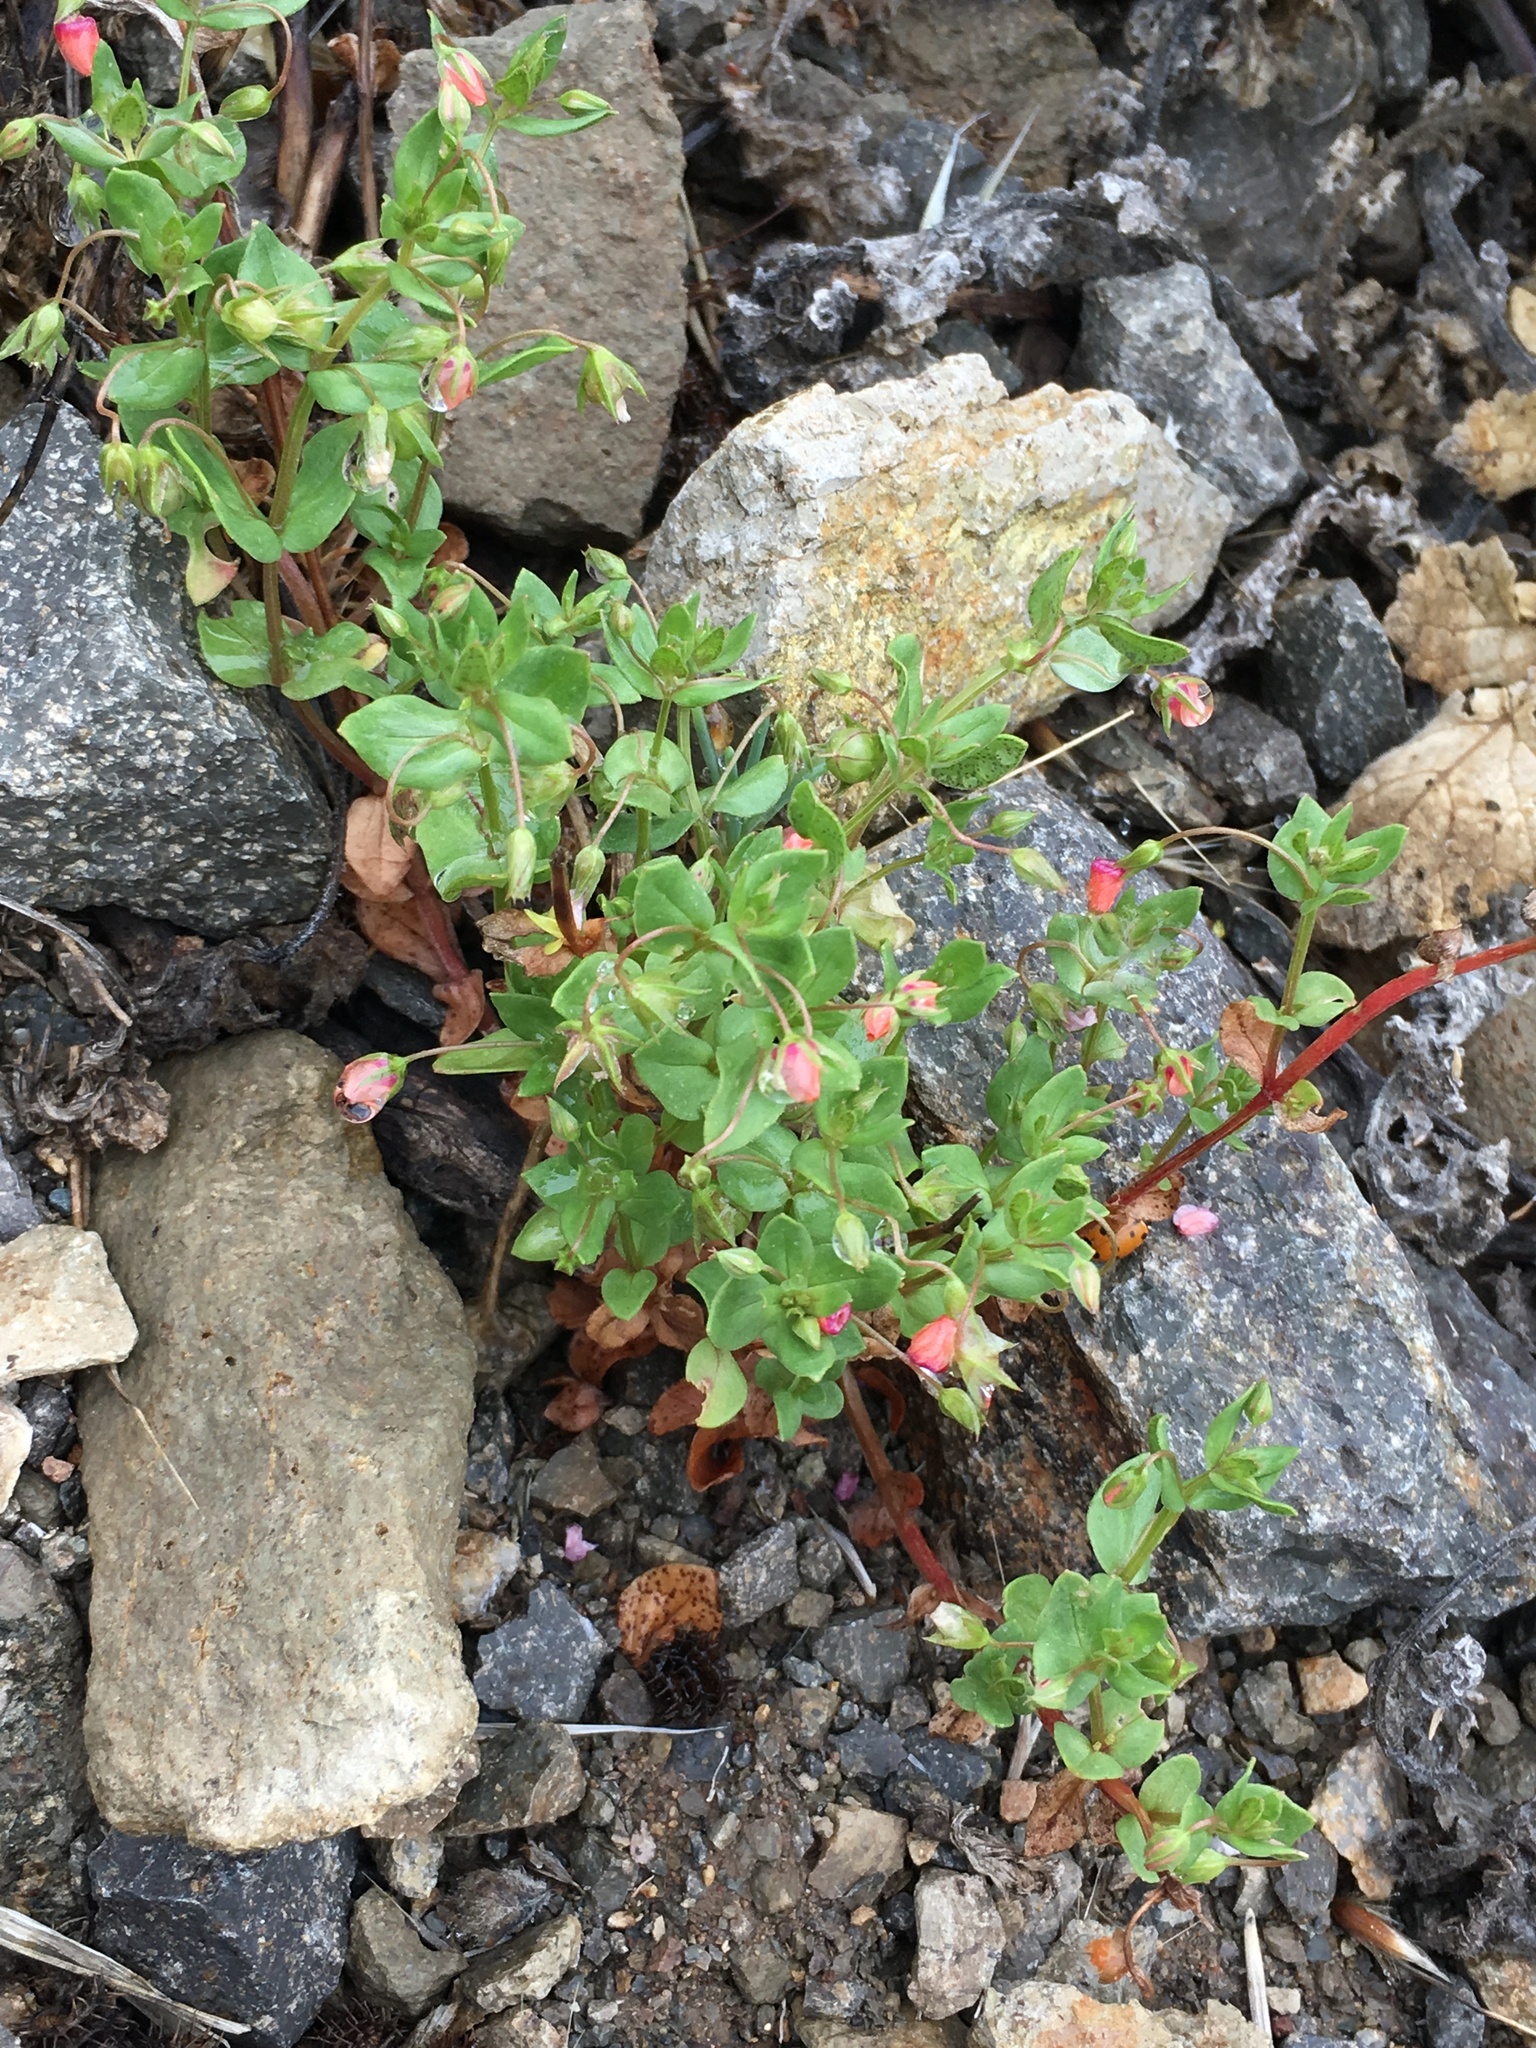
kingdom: Plantae
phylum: Tracheophyta
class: Magnoliopsida
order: Ericales
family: Primulaceae
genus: Lysimachia
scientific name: Lysimachia arvensis
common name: Scarlet pimpernel
